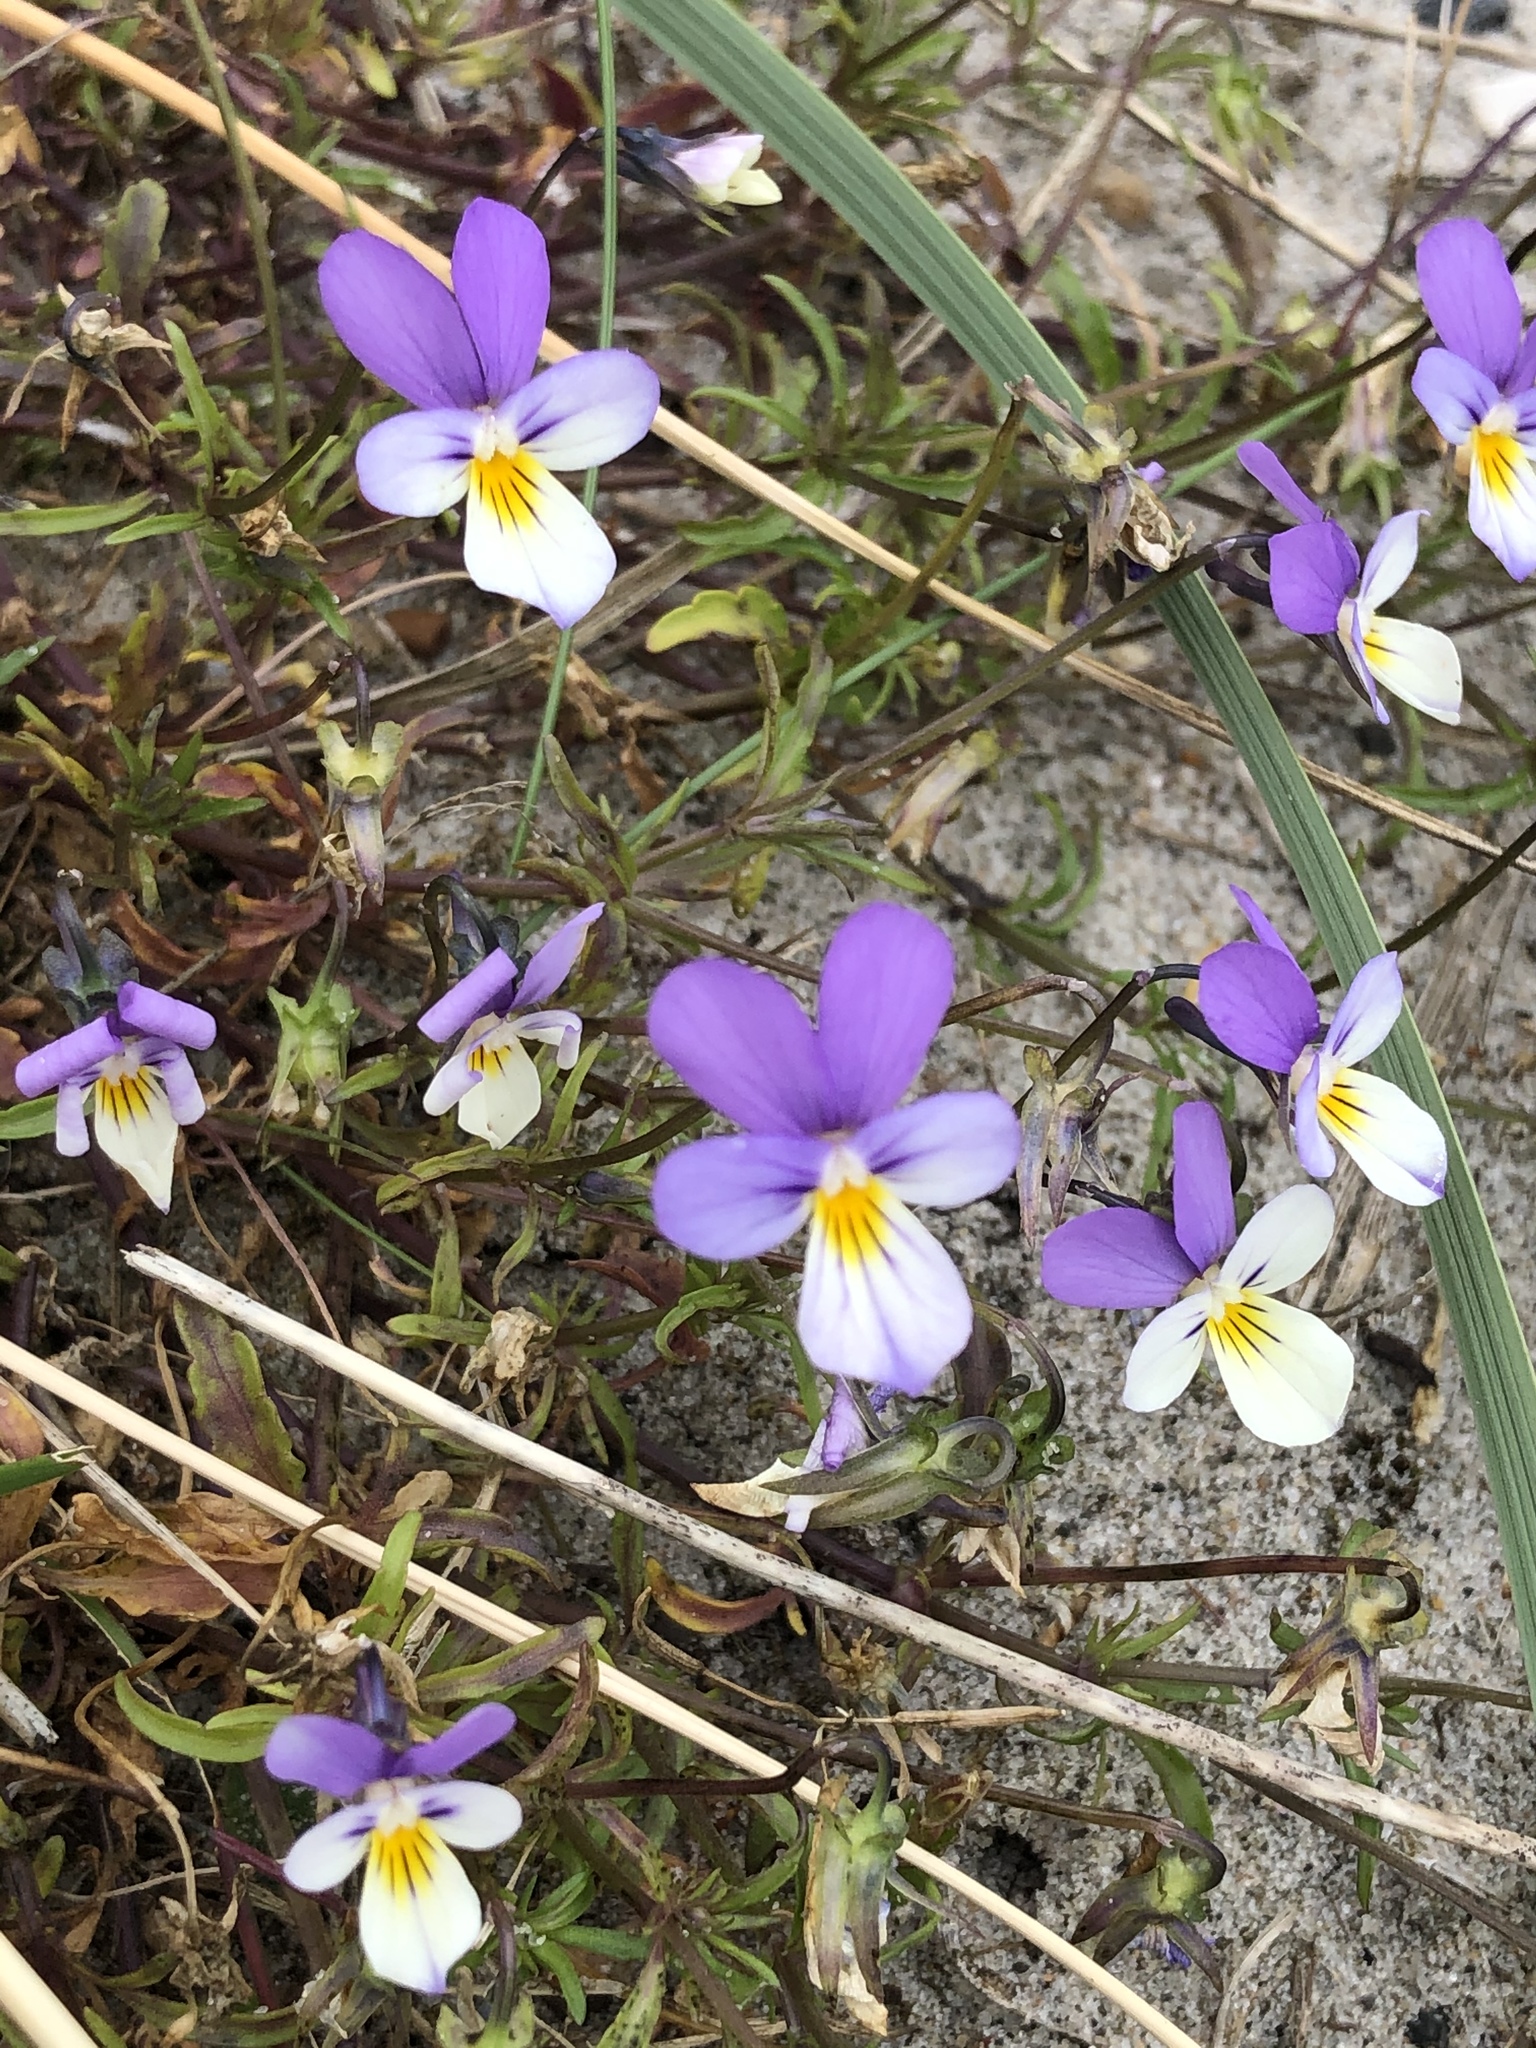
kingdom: Plantae
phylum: Tracheophyta
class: Magnoliopsida
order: Malpighiales
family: Violaceae
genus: Viola
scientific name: Viola tricolor
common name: Pansy
